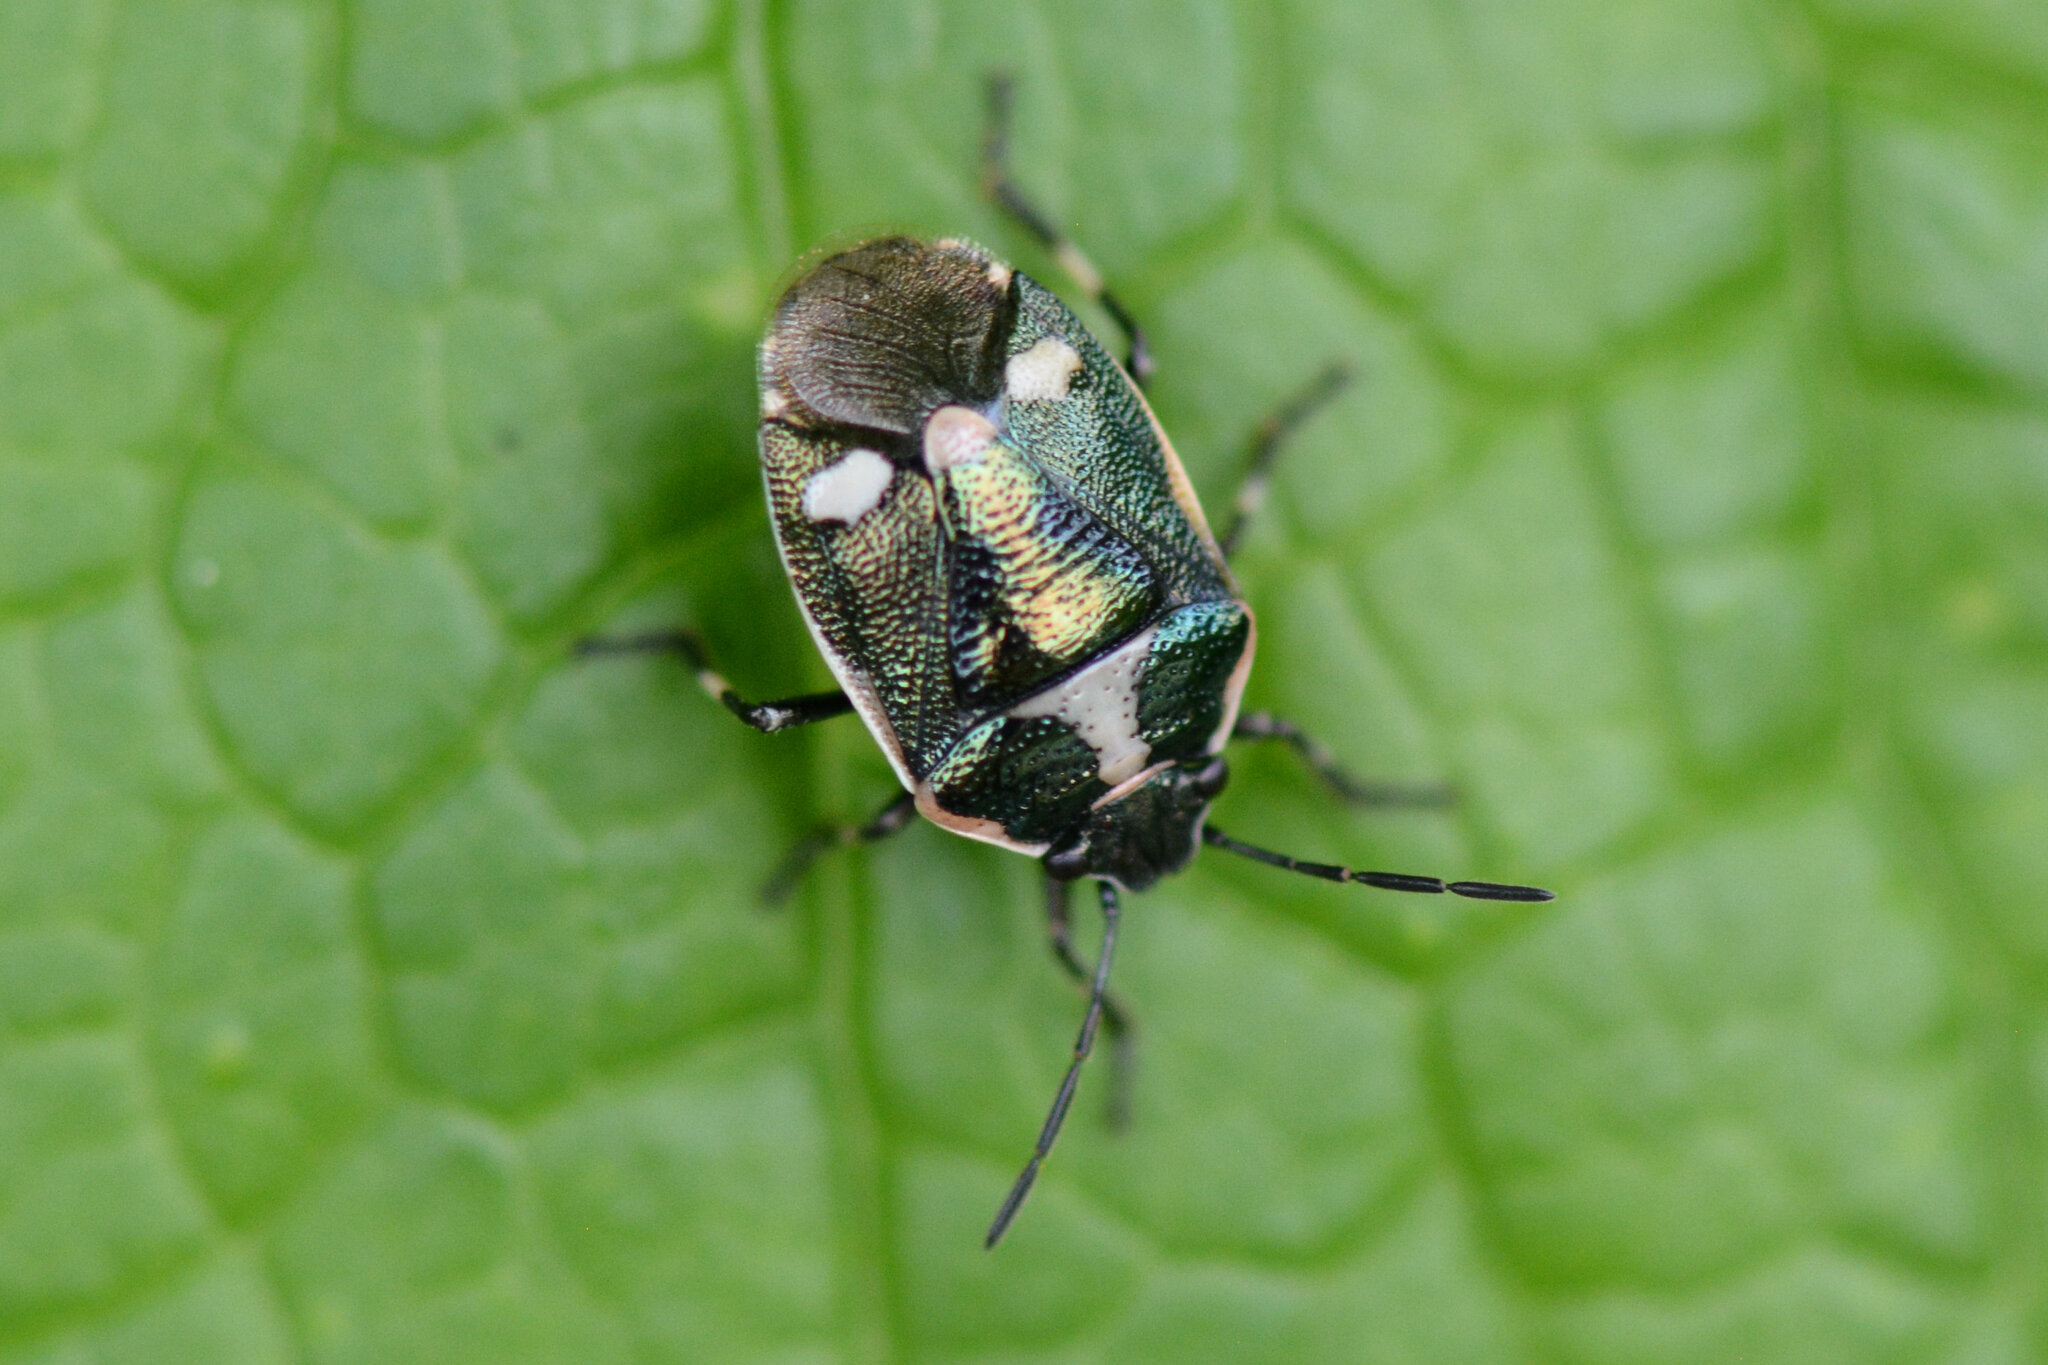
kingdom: Animalia
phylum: Arthropoda
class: Insecta
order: Hemiptera
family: Pentatomidae
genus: Eurydema
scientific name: Eurydema oleracea
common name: Cabbage bug
